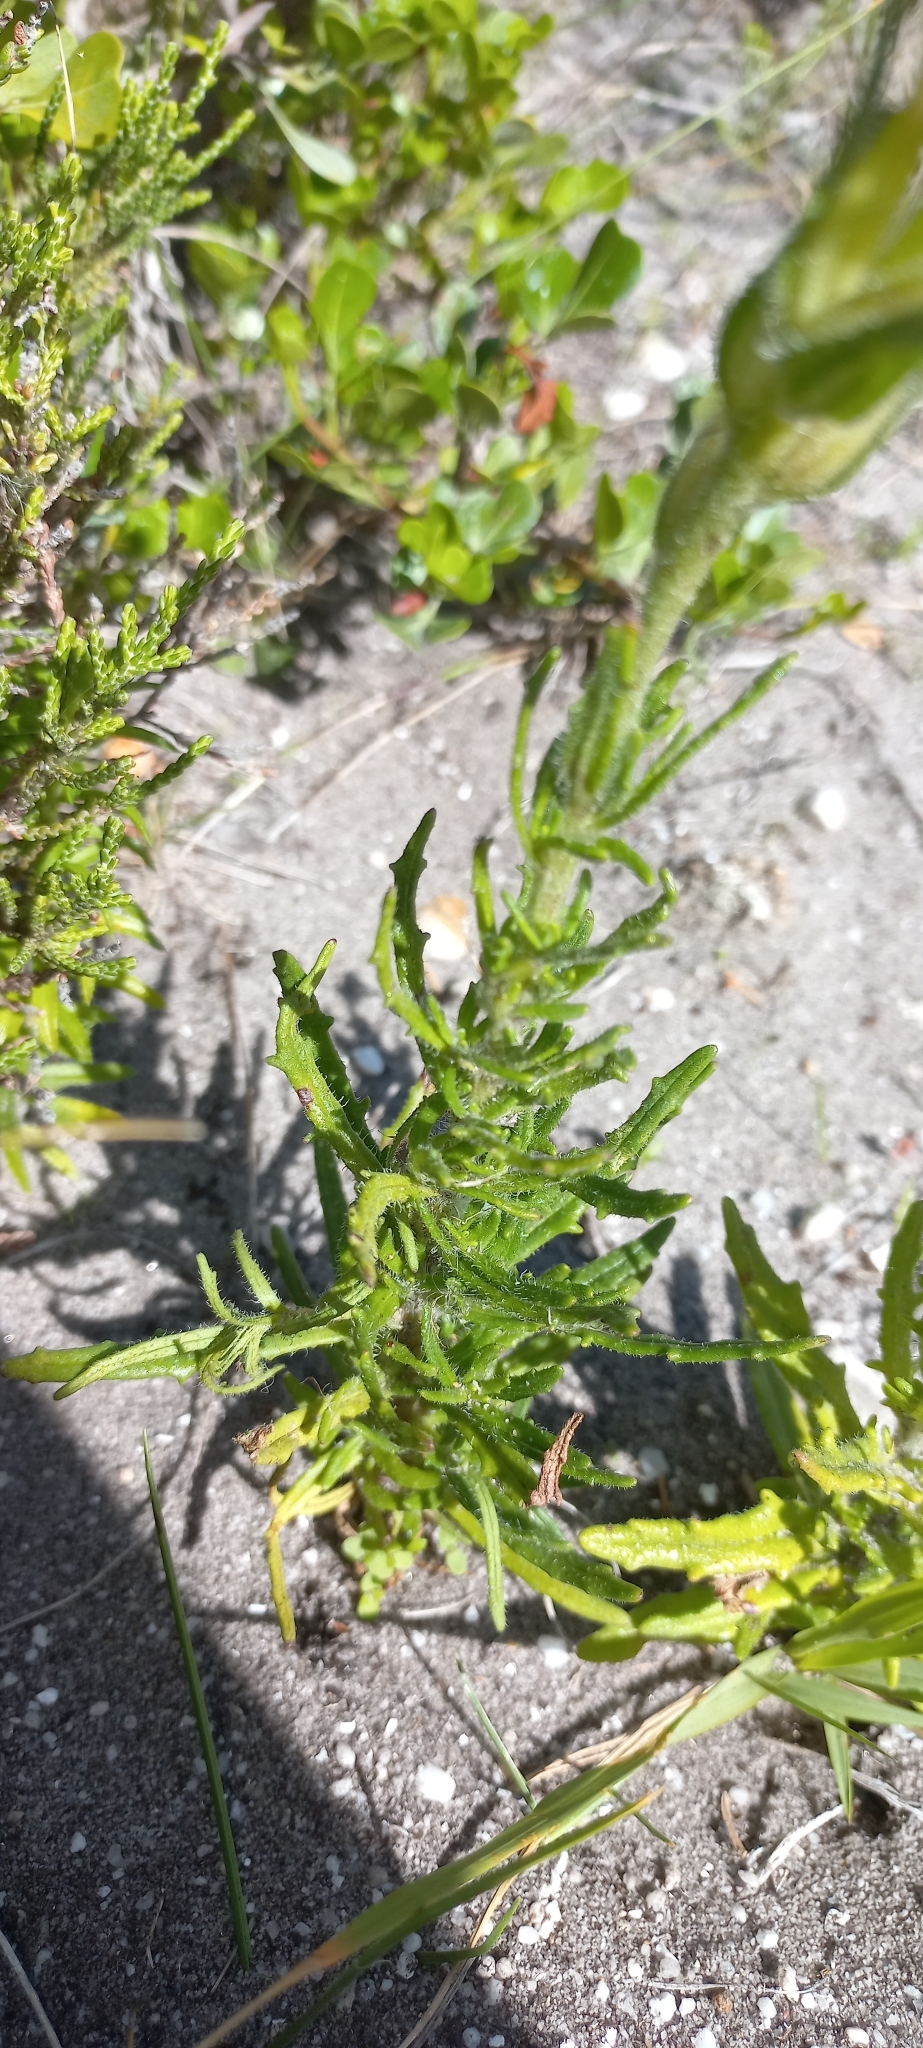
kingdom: Plantae
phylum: Tracheophyta
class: Magnoliopsida
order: Lamiales
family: Scrophulariaceae
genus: Zaluzianskya
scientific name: Zaluzianskya capensis
